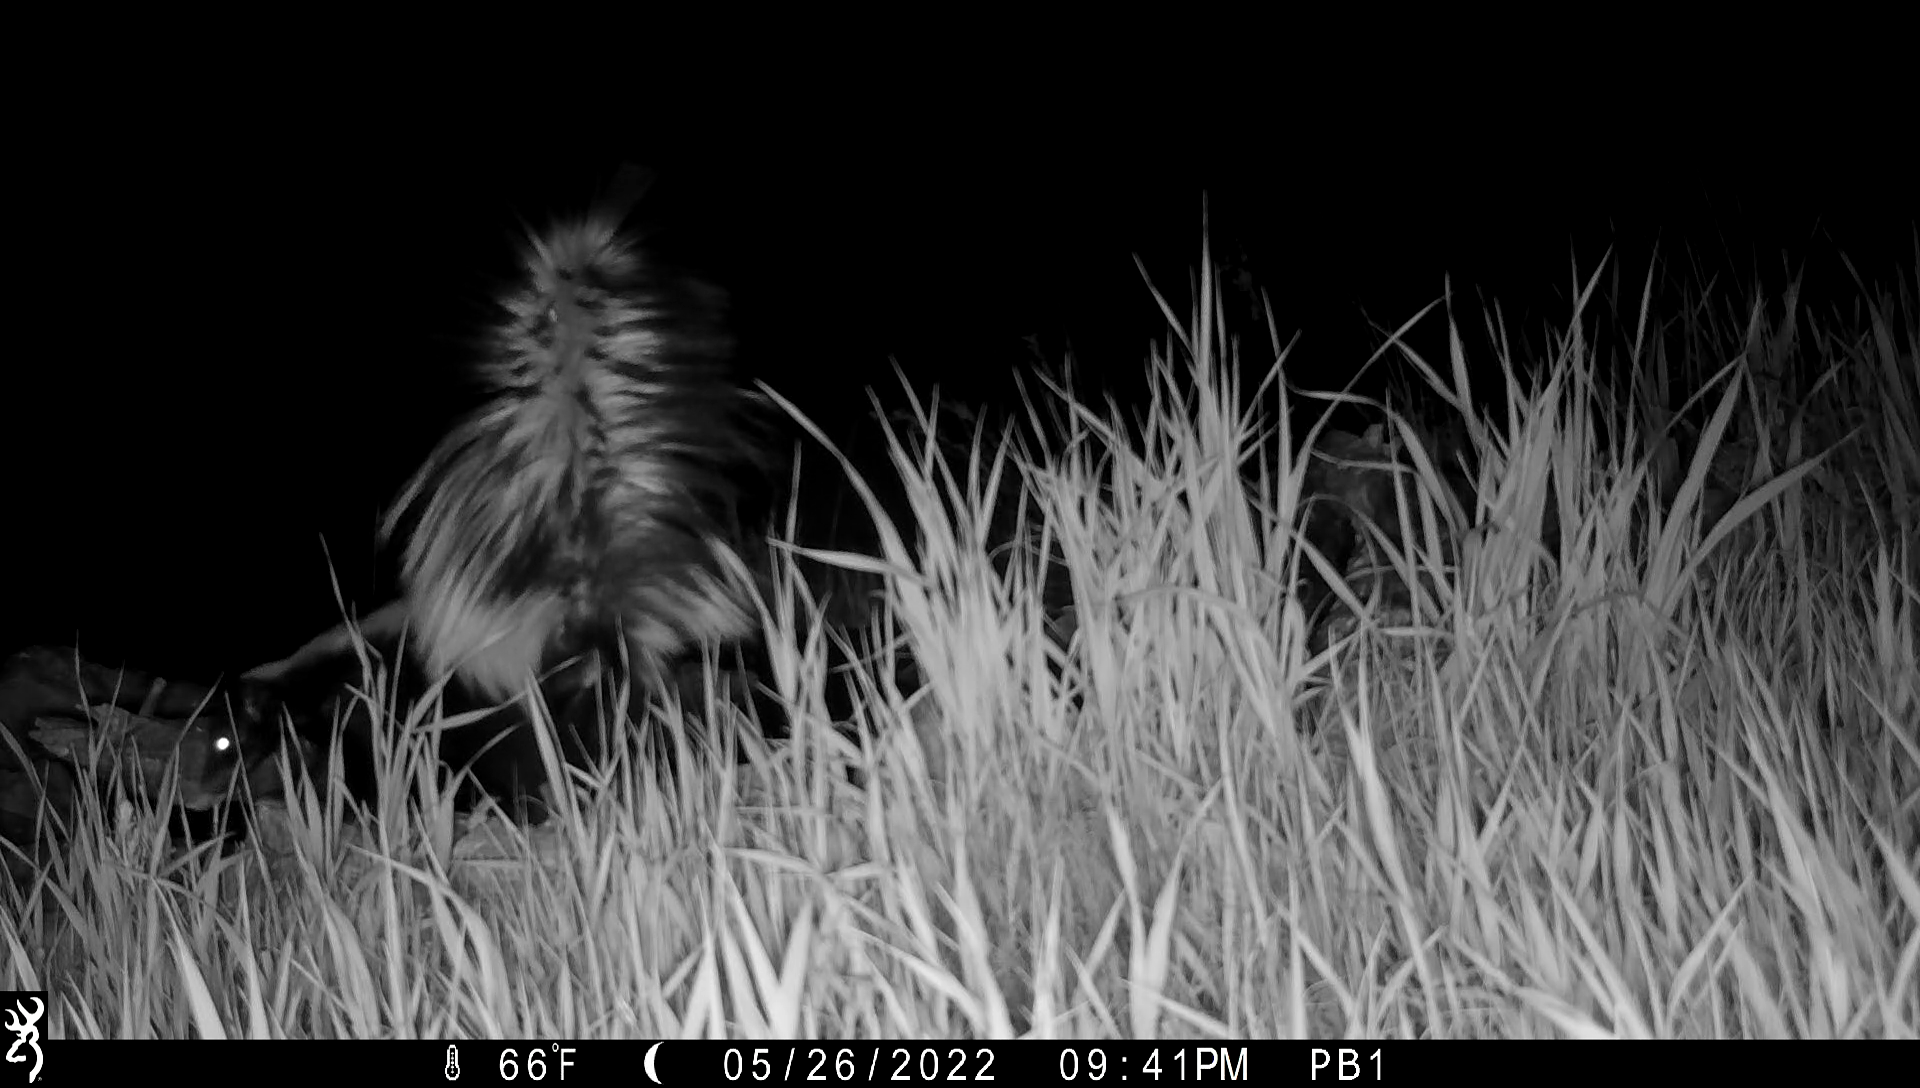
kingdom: Animalia
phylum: Chordata
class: Mammalia
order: Carnivora
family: Mephitidae
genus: Mephitis
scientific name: Mephitis mephitis
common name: Striped skunk
